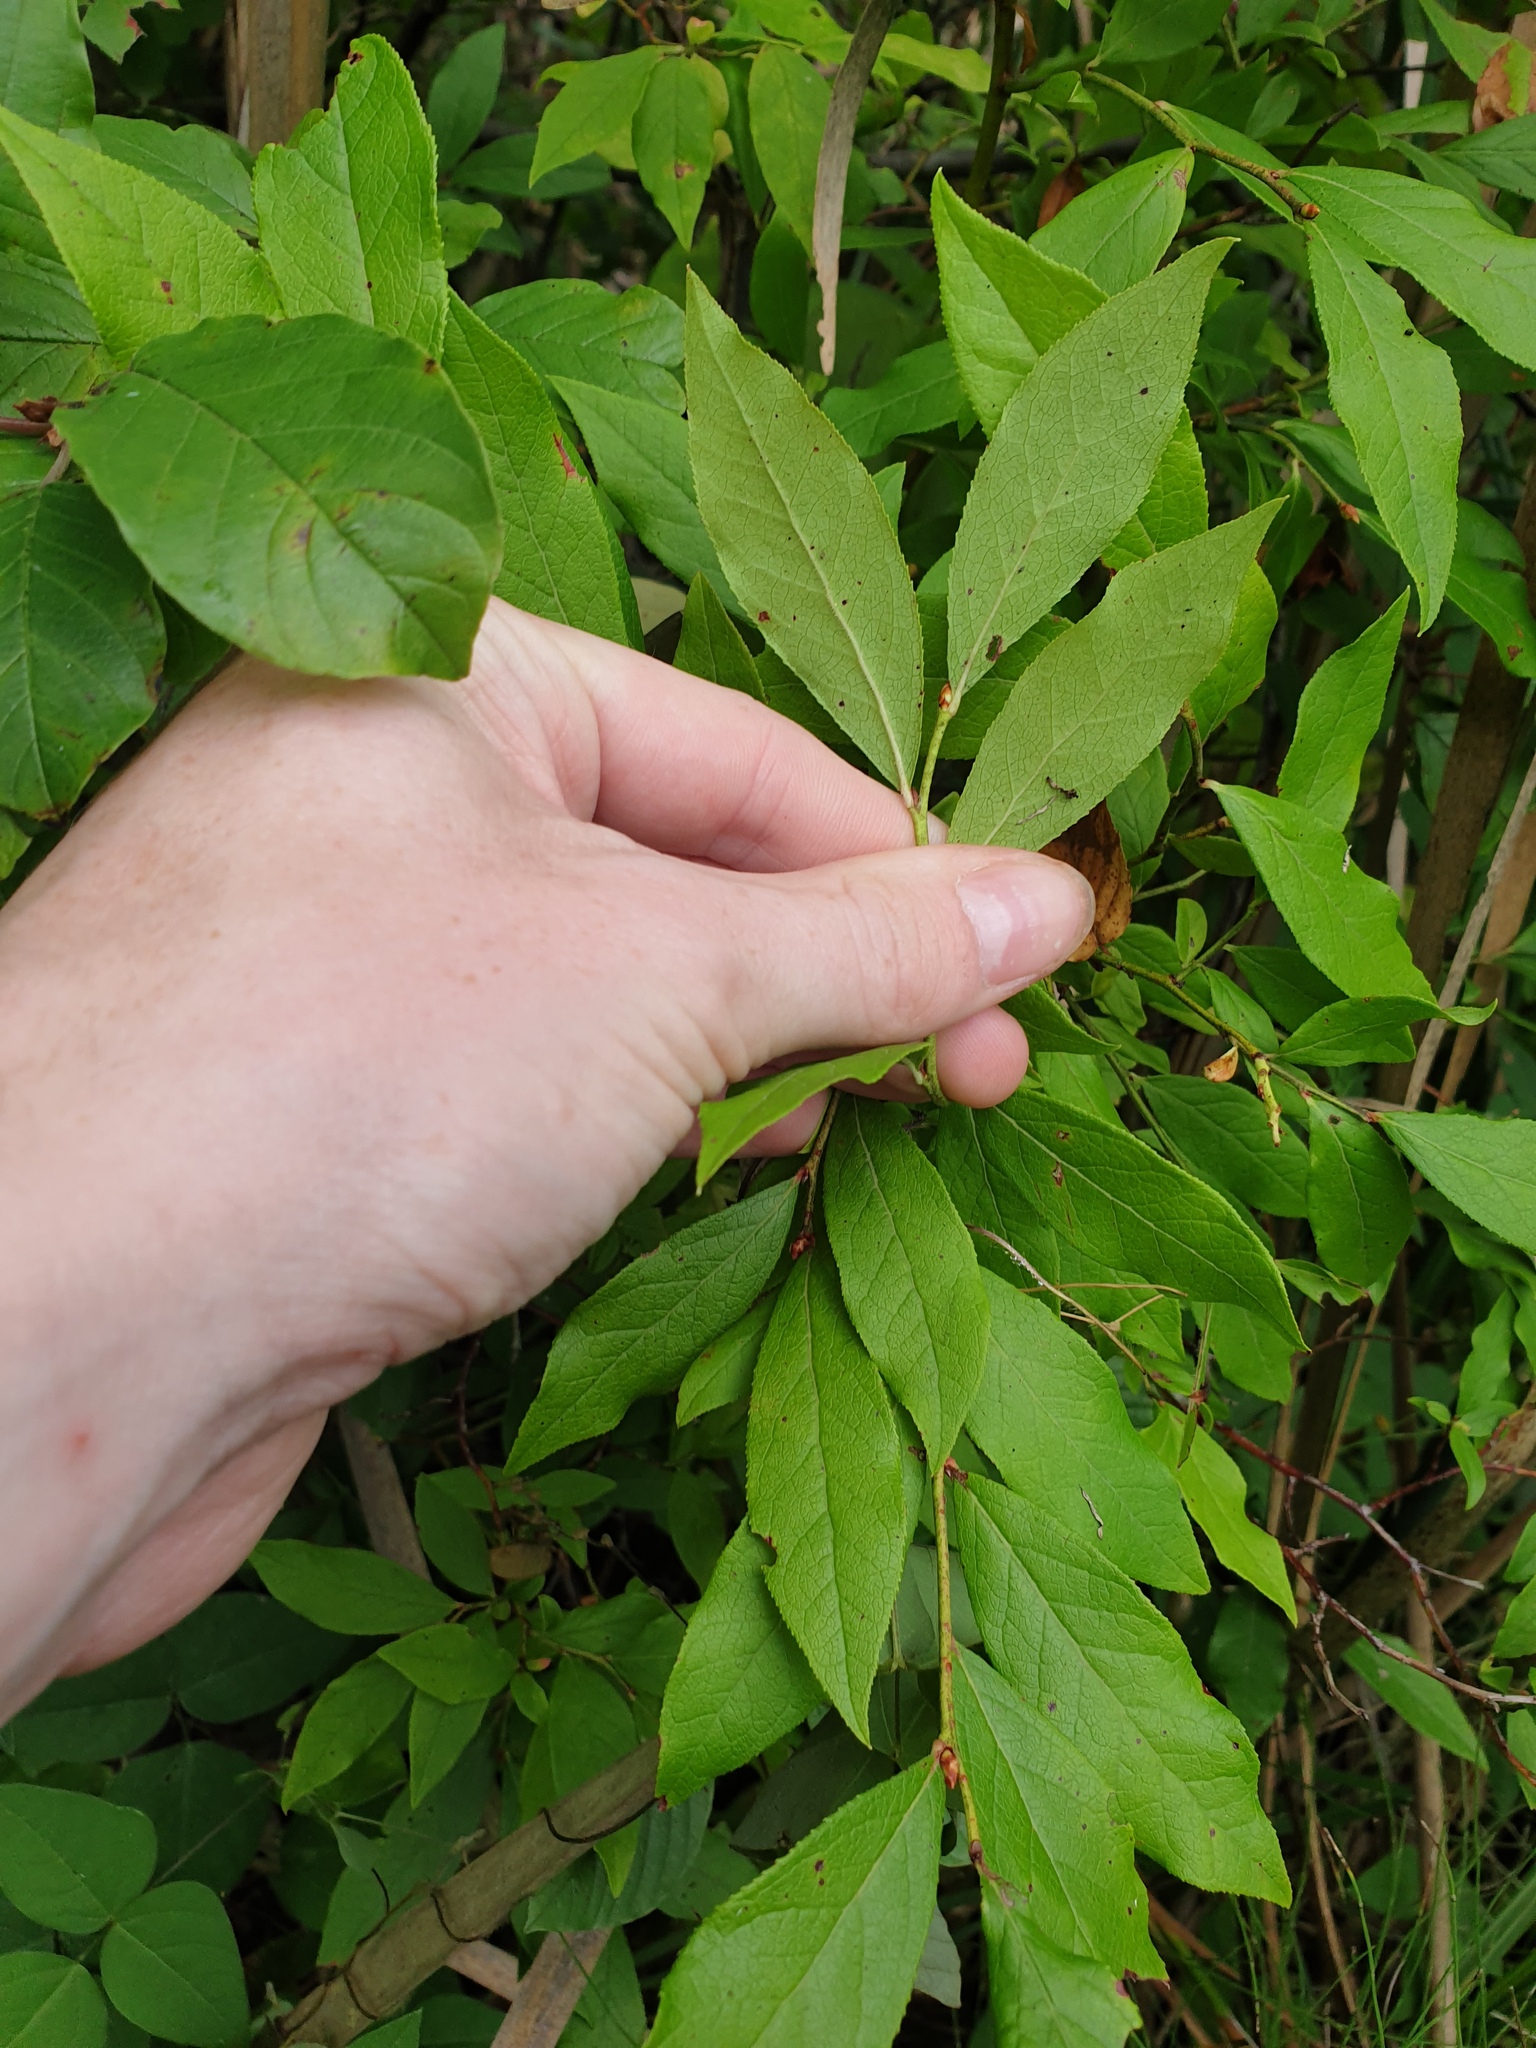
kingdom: Plantae
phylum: Tracheophyta
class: Magnoliopsida
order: Ericales
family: Ericaceae
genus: Vaccinium
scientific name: Vaccinium corymbosum
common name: Blueberry
